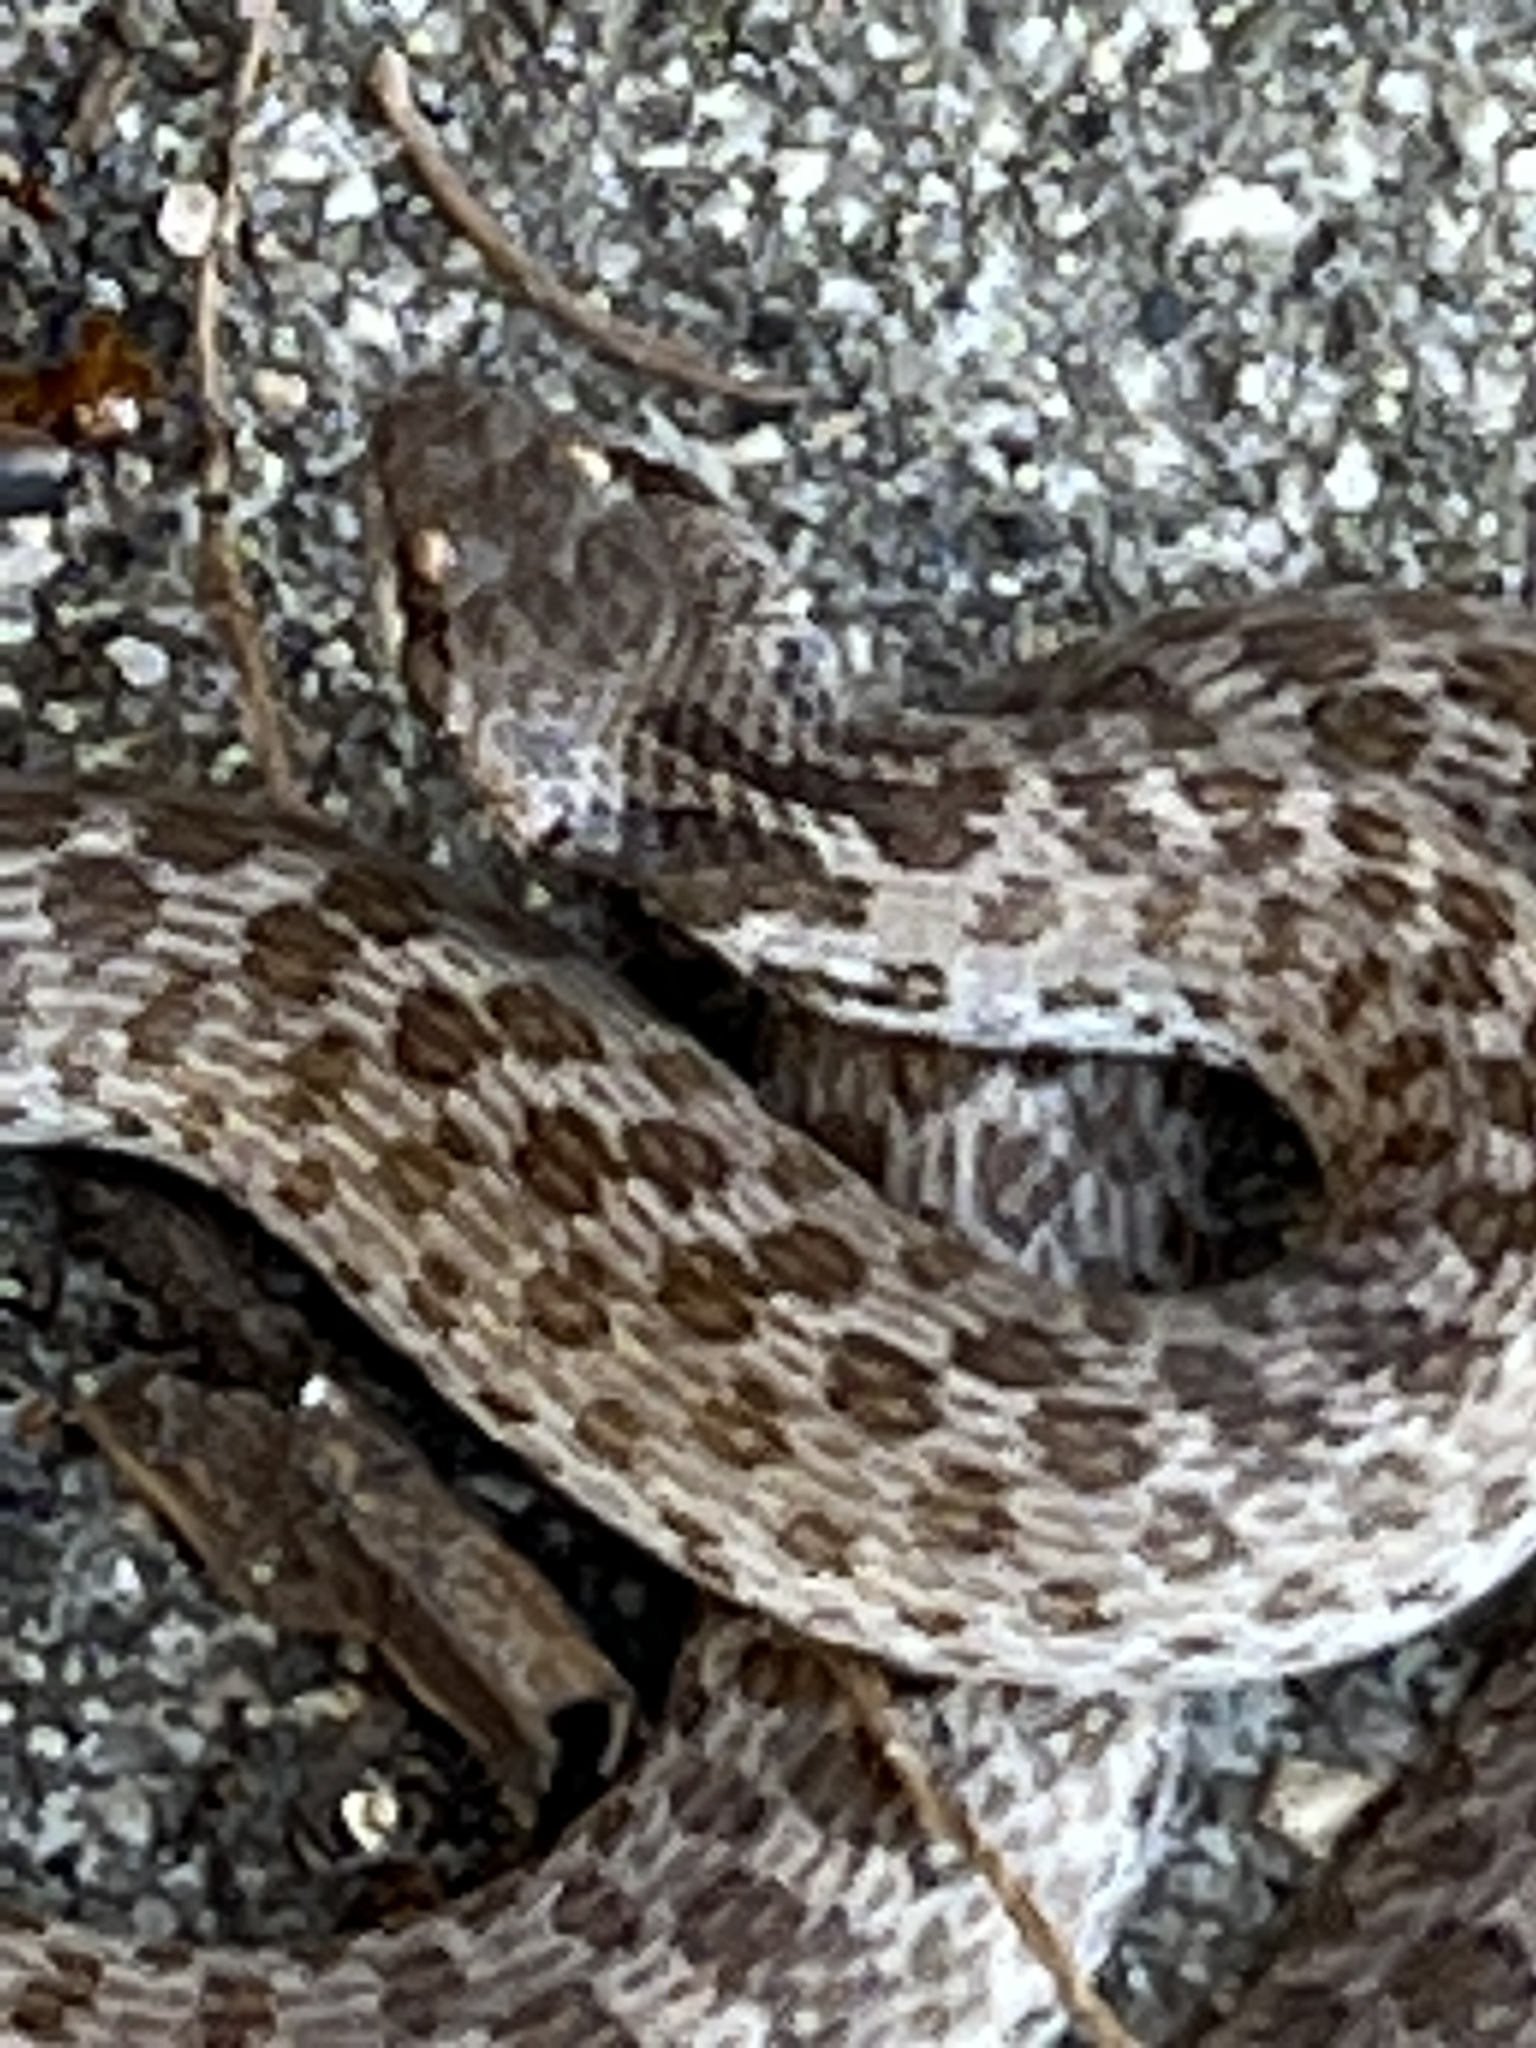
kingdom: Animalia
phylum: Chordata
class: Squamata
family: Colubridae
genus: Hypsiglena
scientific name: Hypsiglena ochrorhynchus
